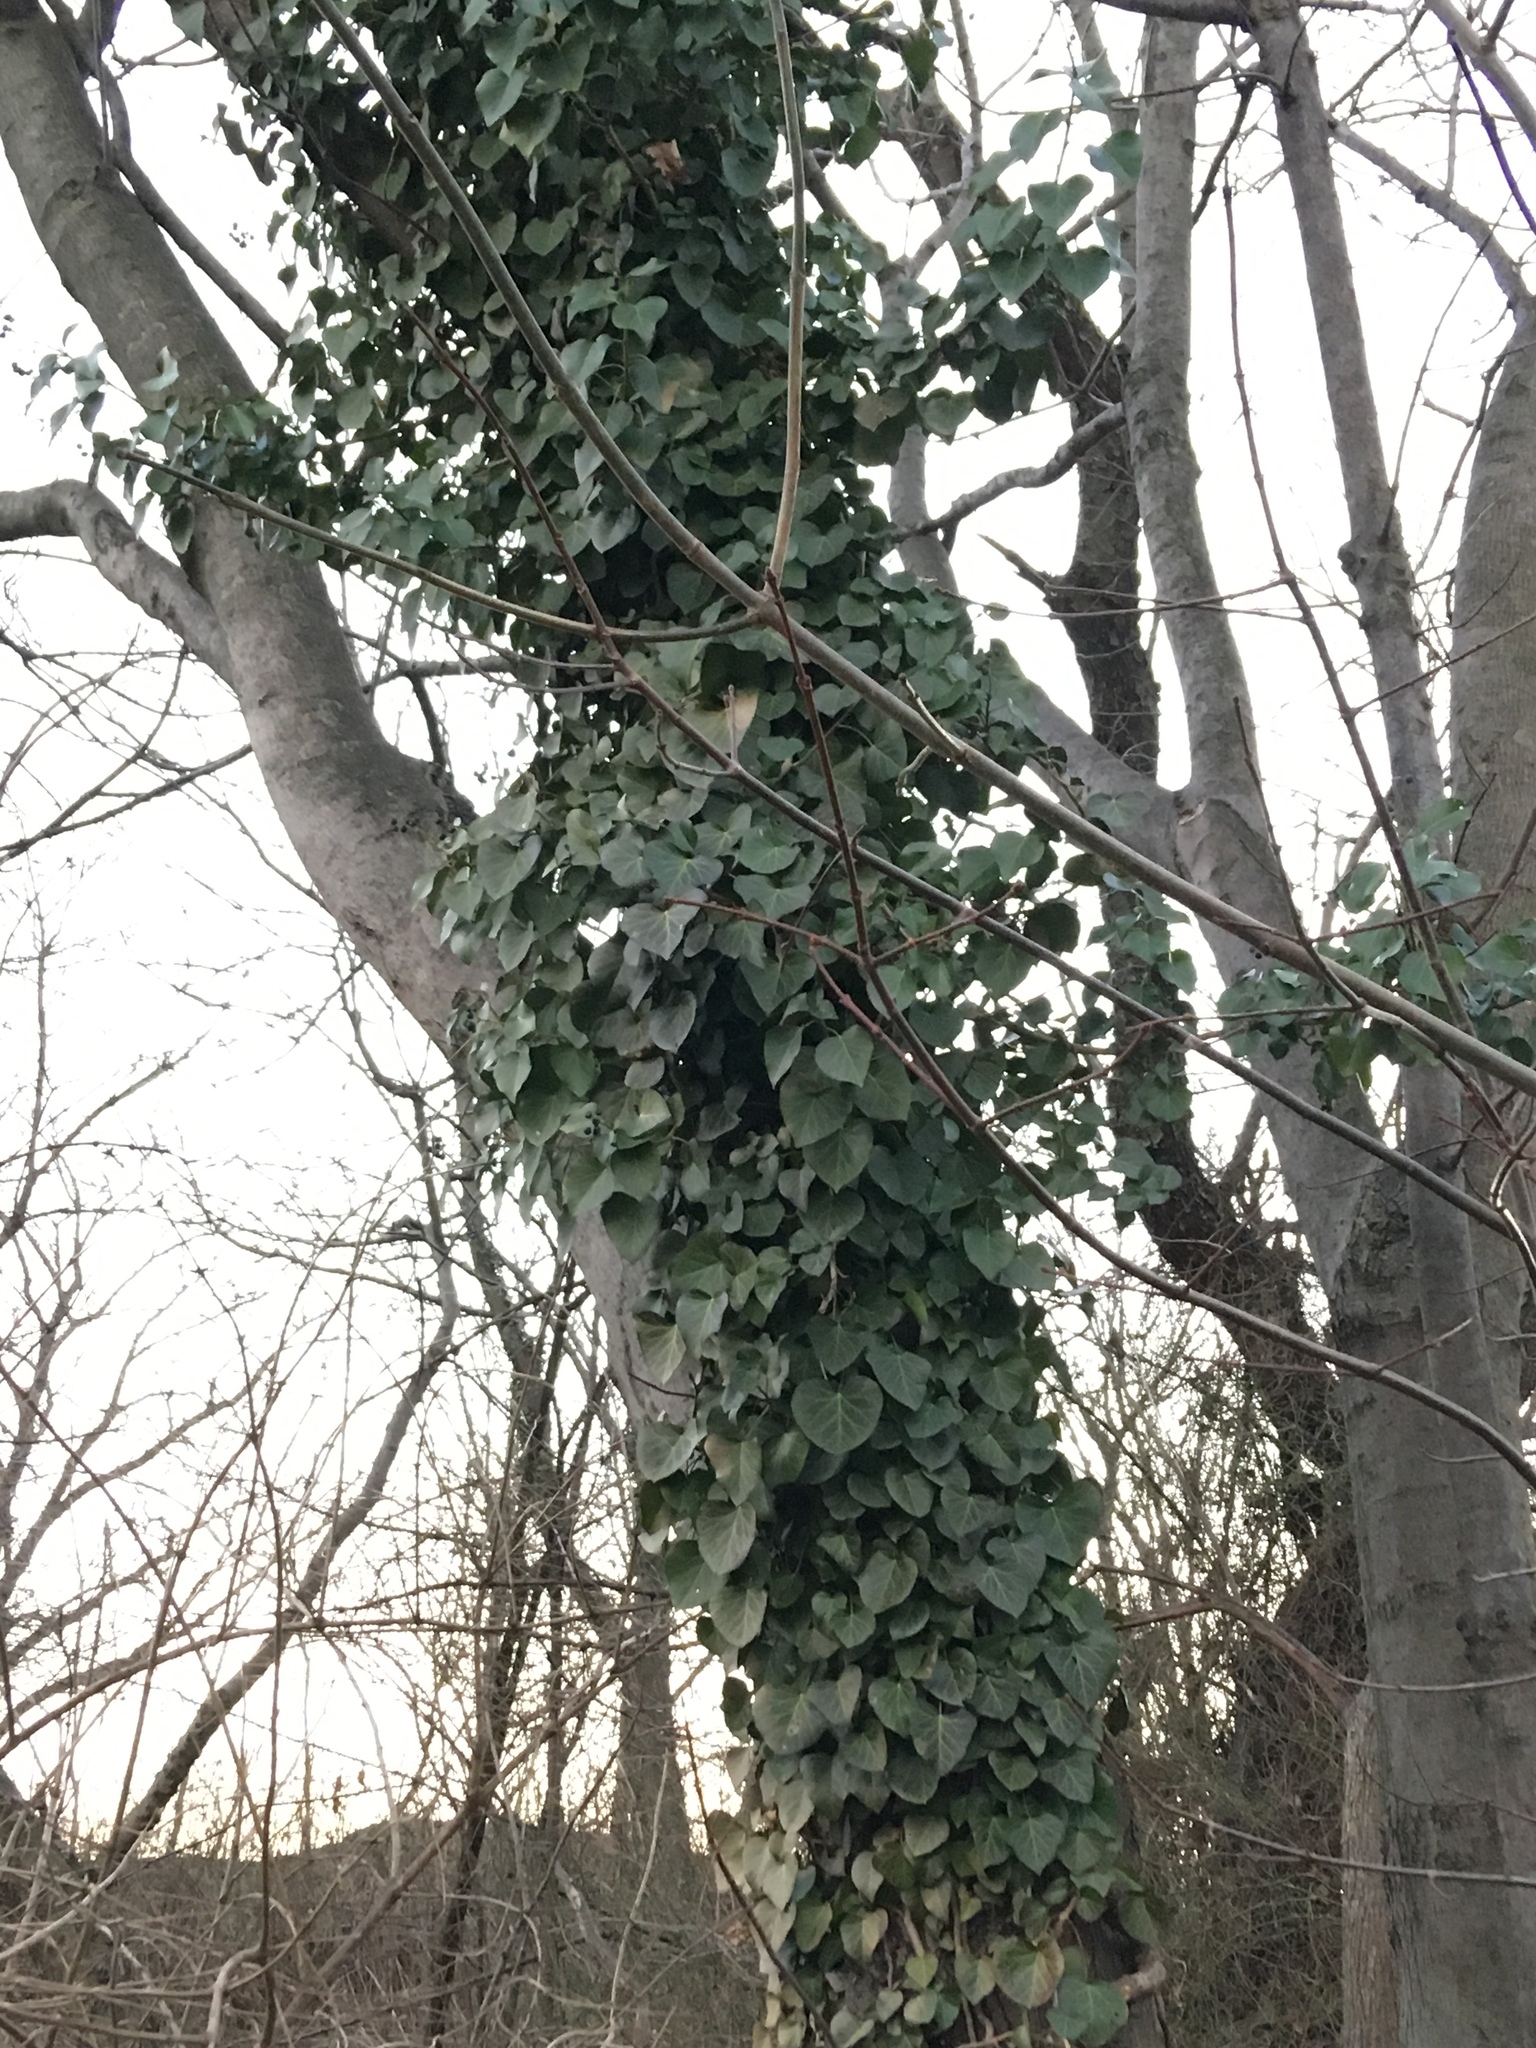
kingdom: Plantae
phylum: Tracheophyta
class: Magnoliopsida
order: Apiales
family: Araliaceae
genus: Hedera
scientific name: Hedera helix
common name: Ivy
